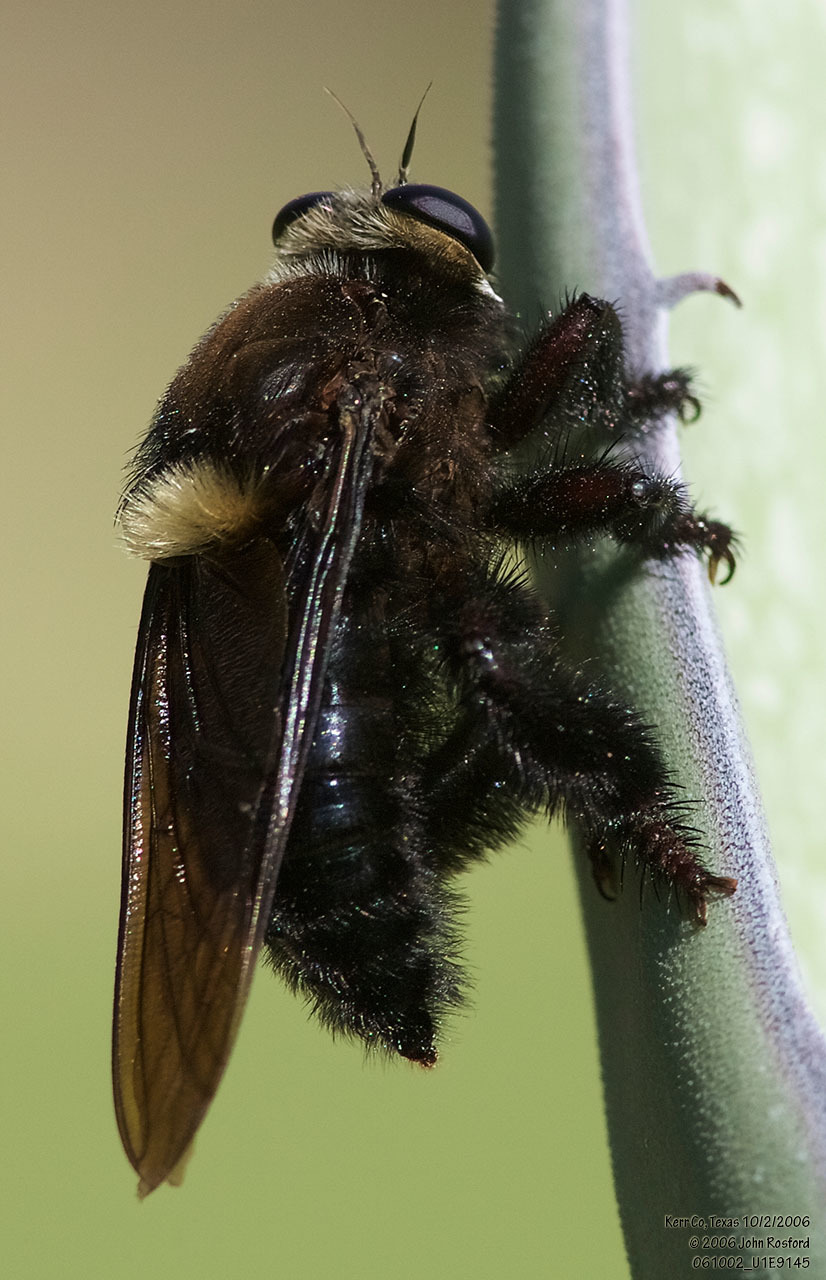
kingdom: Animalia
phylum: Arthropoda
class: Insecta
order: Diptera
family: Asilidae
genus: Mallophora
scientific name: Mallophora leschenaultii
